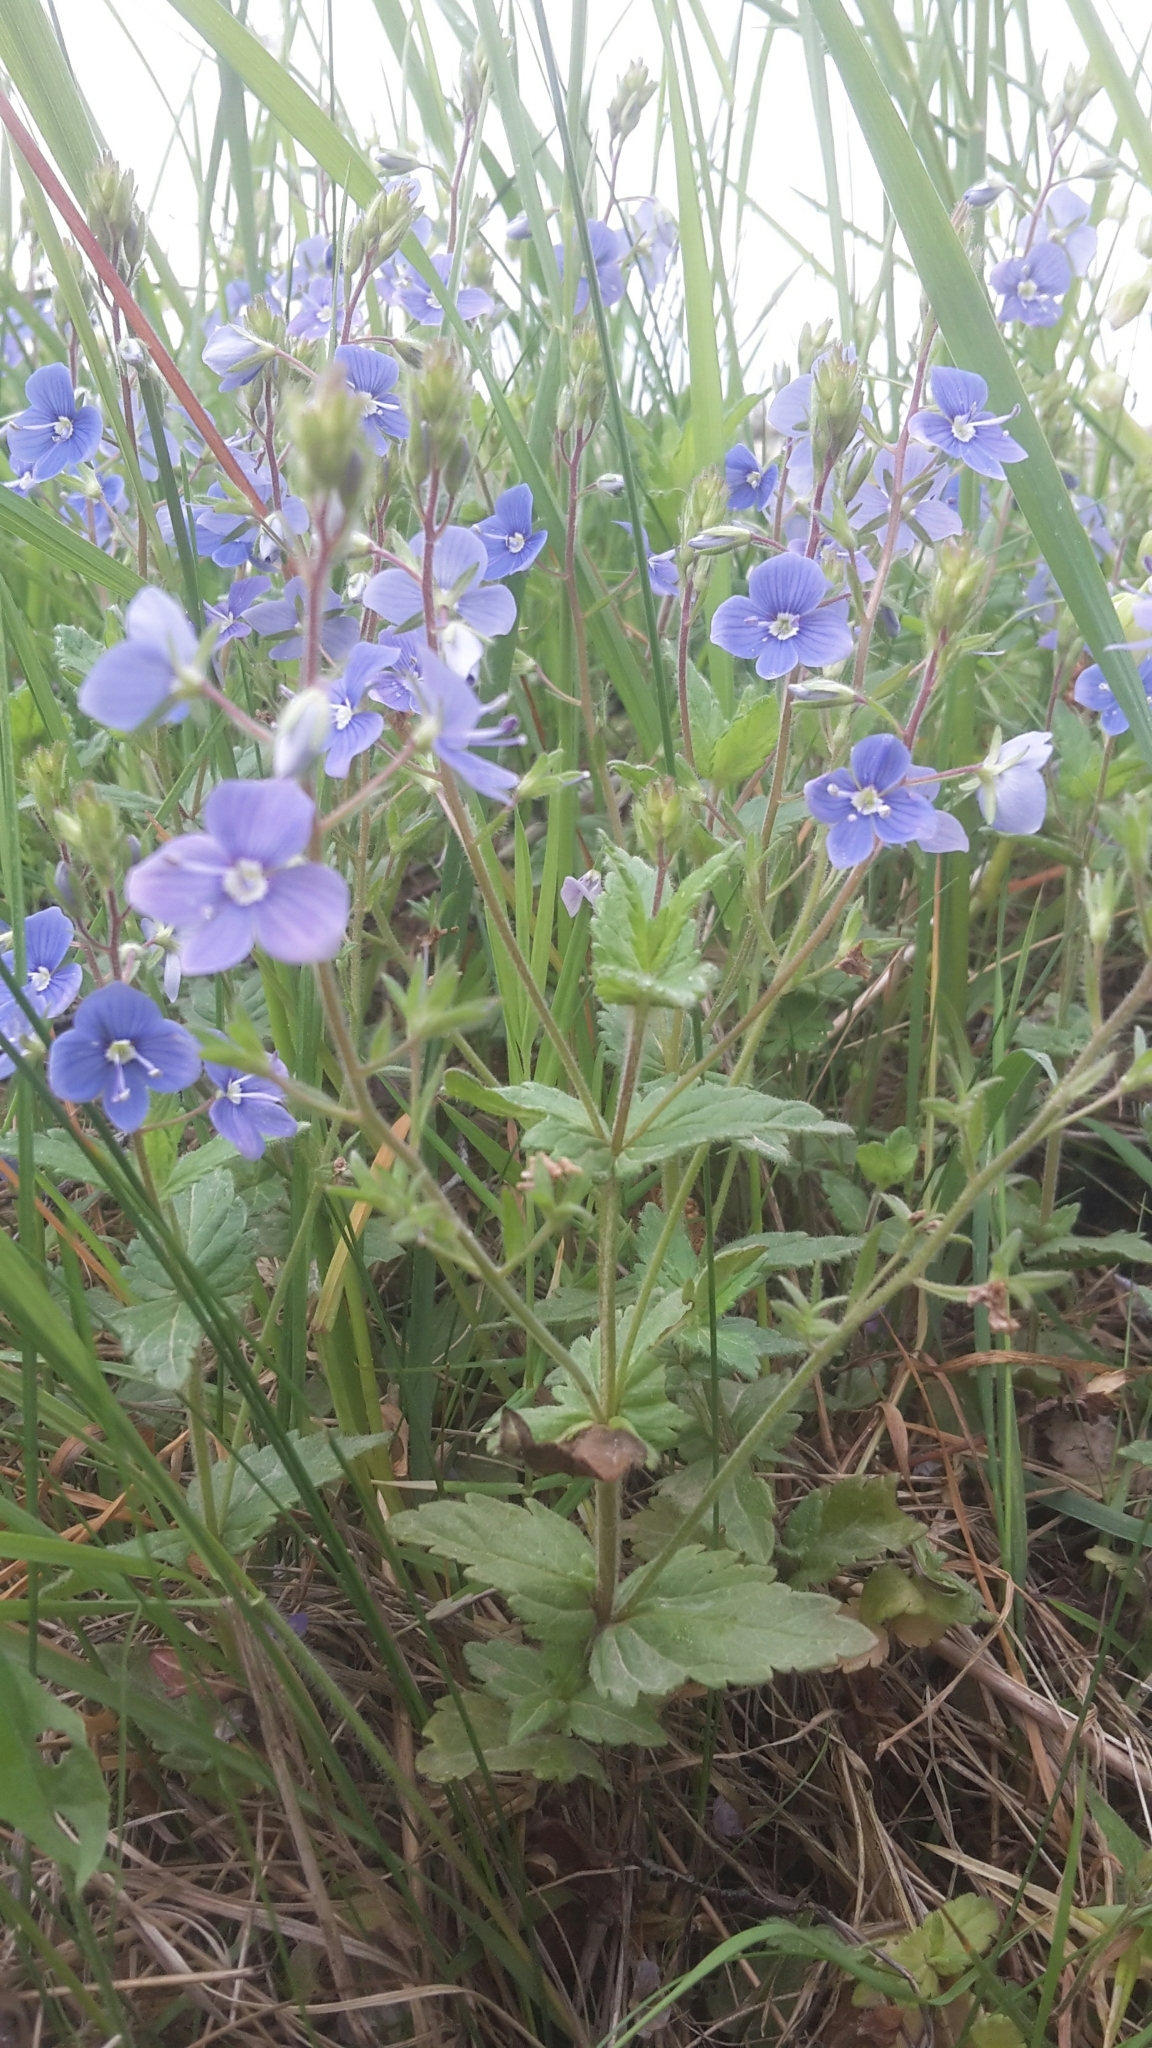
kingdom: Plantae
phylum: Tracheophyta
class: Magnoliopsida
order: Lamiales
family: Plantaginaceae
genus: Veronica
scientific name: Veronica chamaedrys
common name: Germander speedwell
